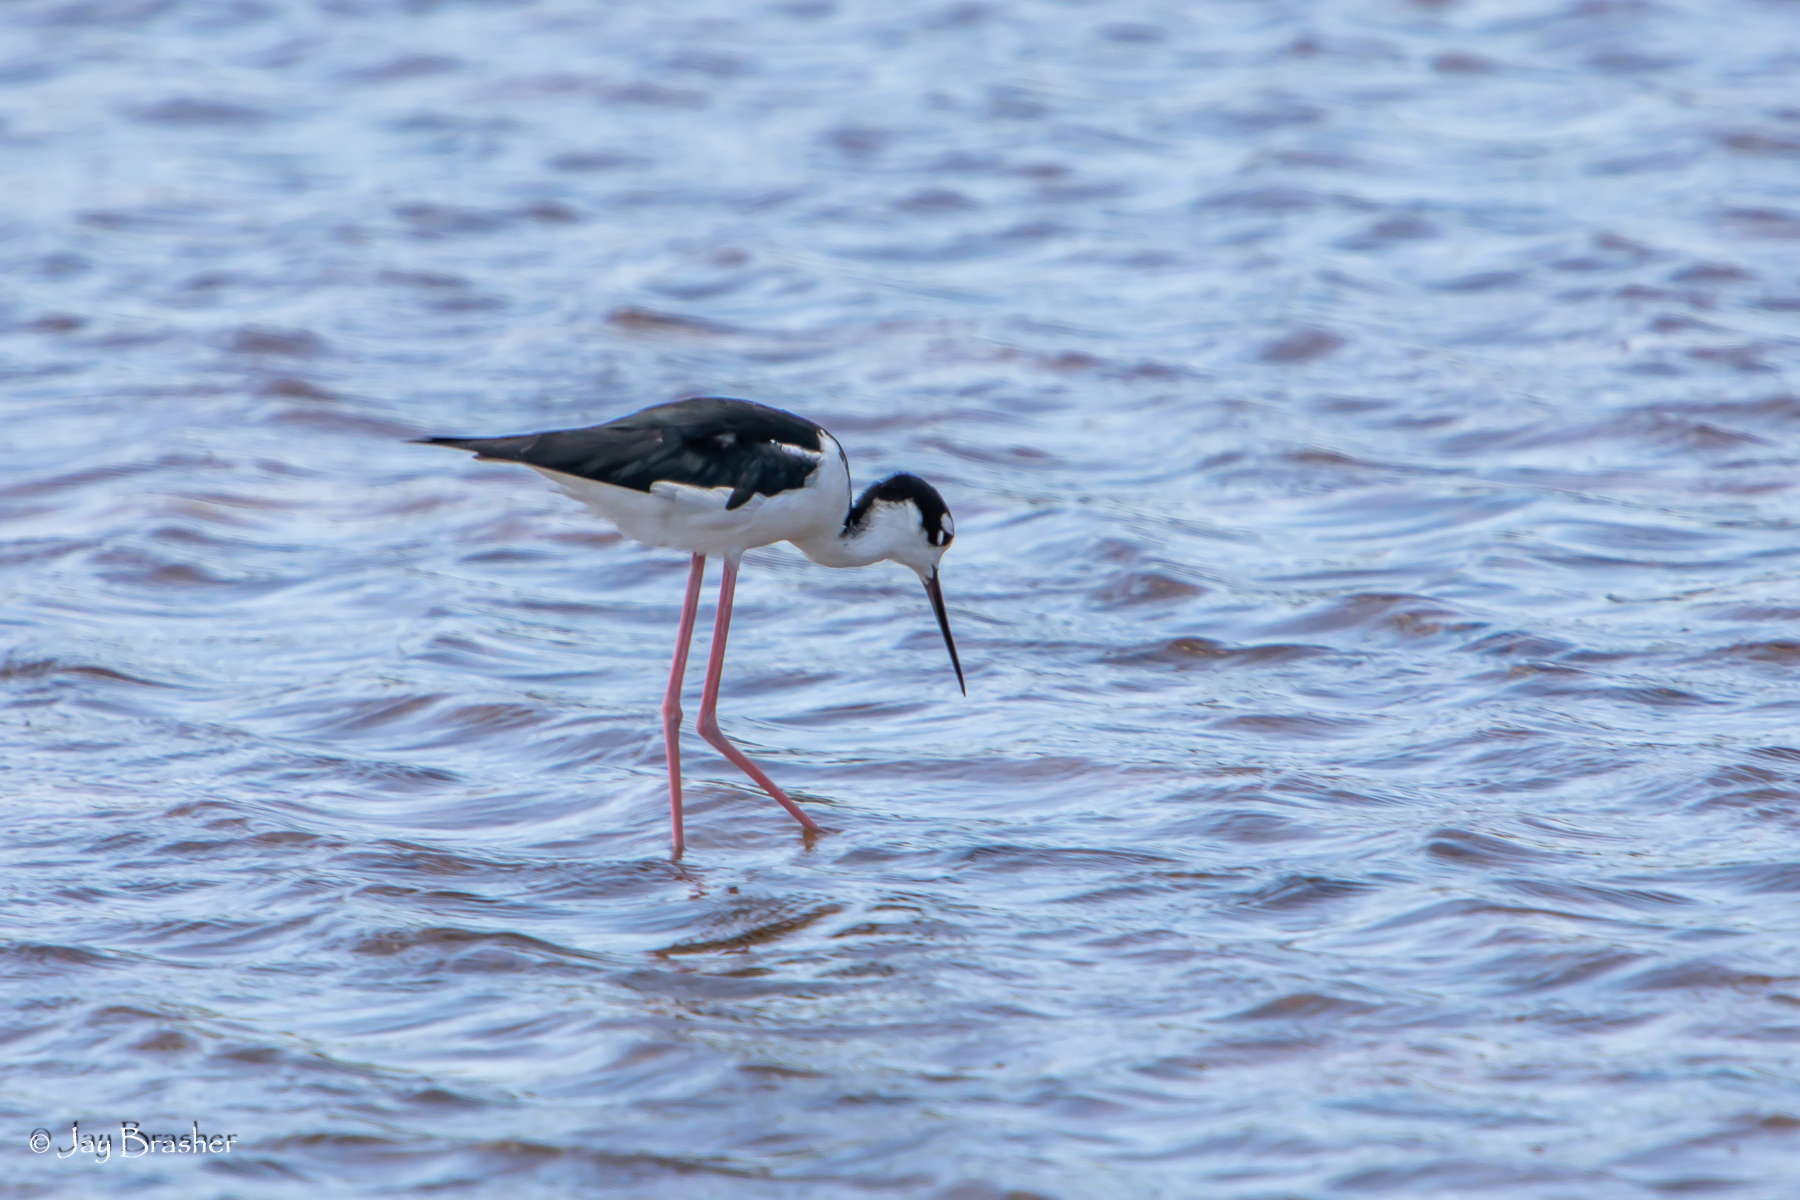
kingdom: Animalia
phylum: Chordata
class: Aves
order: Charadriiformes
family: Recurvirostridae
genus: Himantopus
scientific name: Himantopus mexicanus
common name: Black-necked stilt
